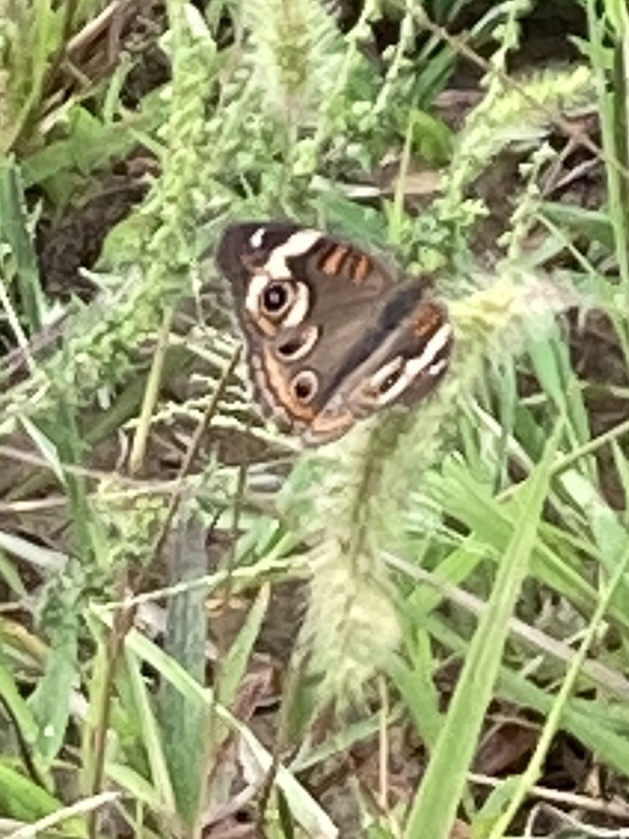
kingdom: Animalia
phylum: Arthropoda
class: Insecta
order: Lepidoptera
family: Nymphalidae
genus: Junonia
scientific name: Junonia coenia
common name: Common buckeye
